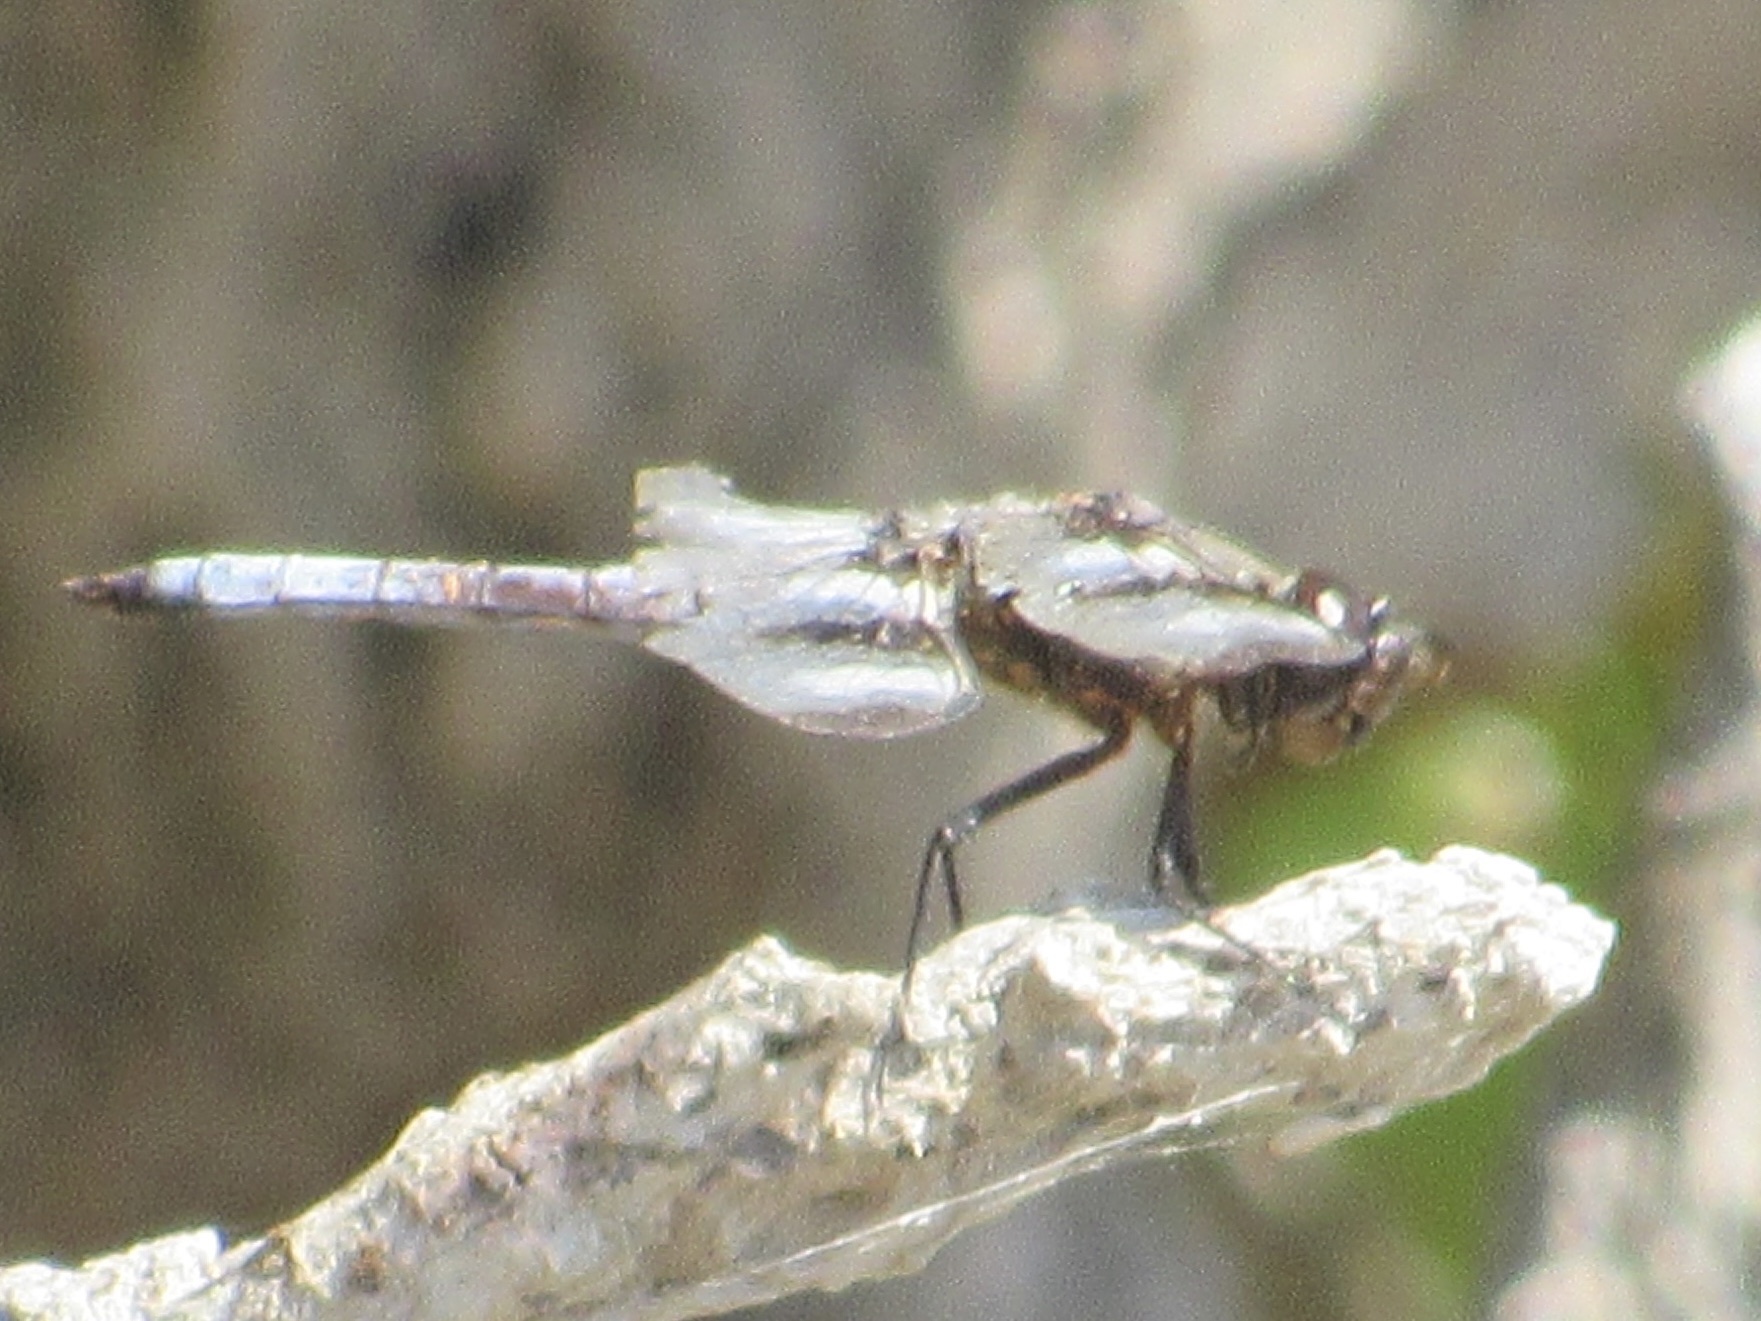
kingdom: Animalia
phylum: Arthropoda
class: Insecta
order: Odonata
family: Libellulidae
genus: Libellula
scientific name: Libellula pulchella
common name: Twelve-spotted skimmer
